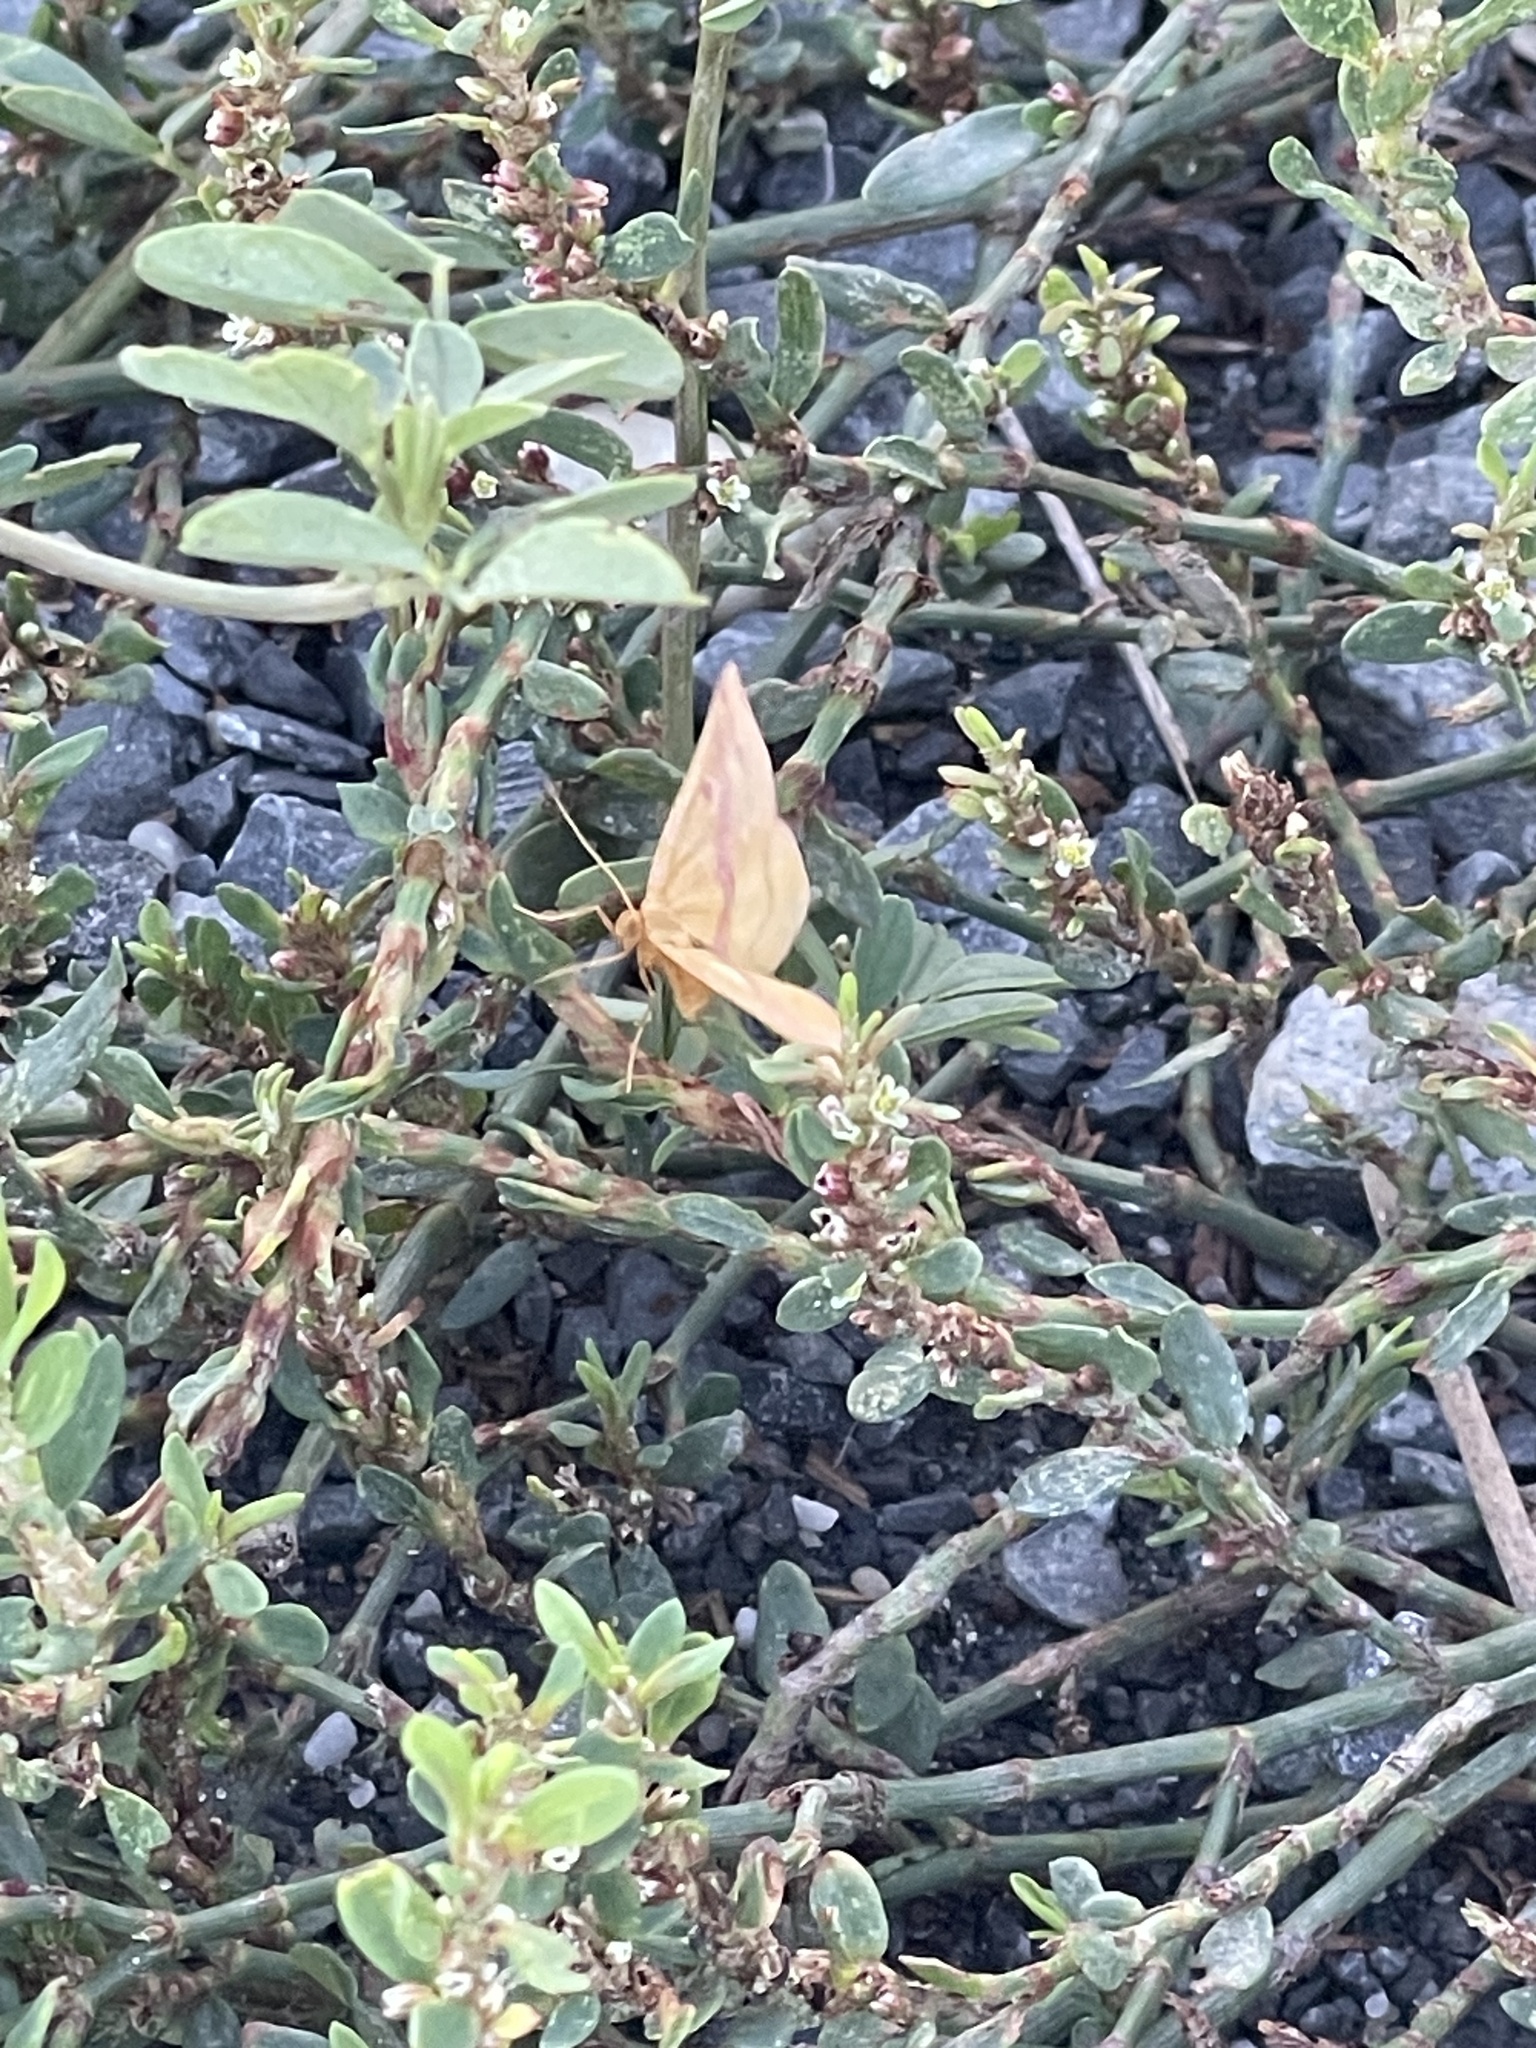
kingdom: Animalia
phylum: Arthropoda
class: Insecta
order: Lepidoptera
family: Geometridae
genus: Haematopis
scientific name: Haematopis grataria
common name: Chickweed geometer
